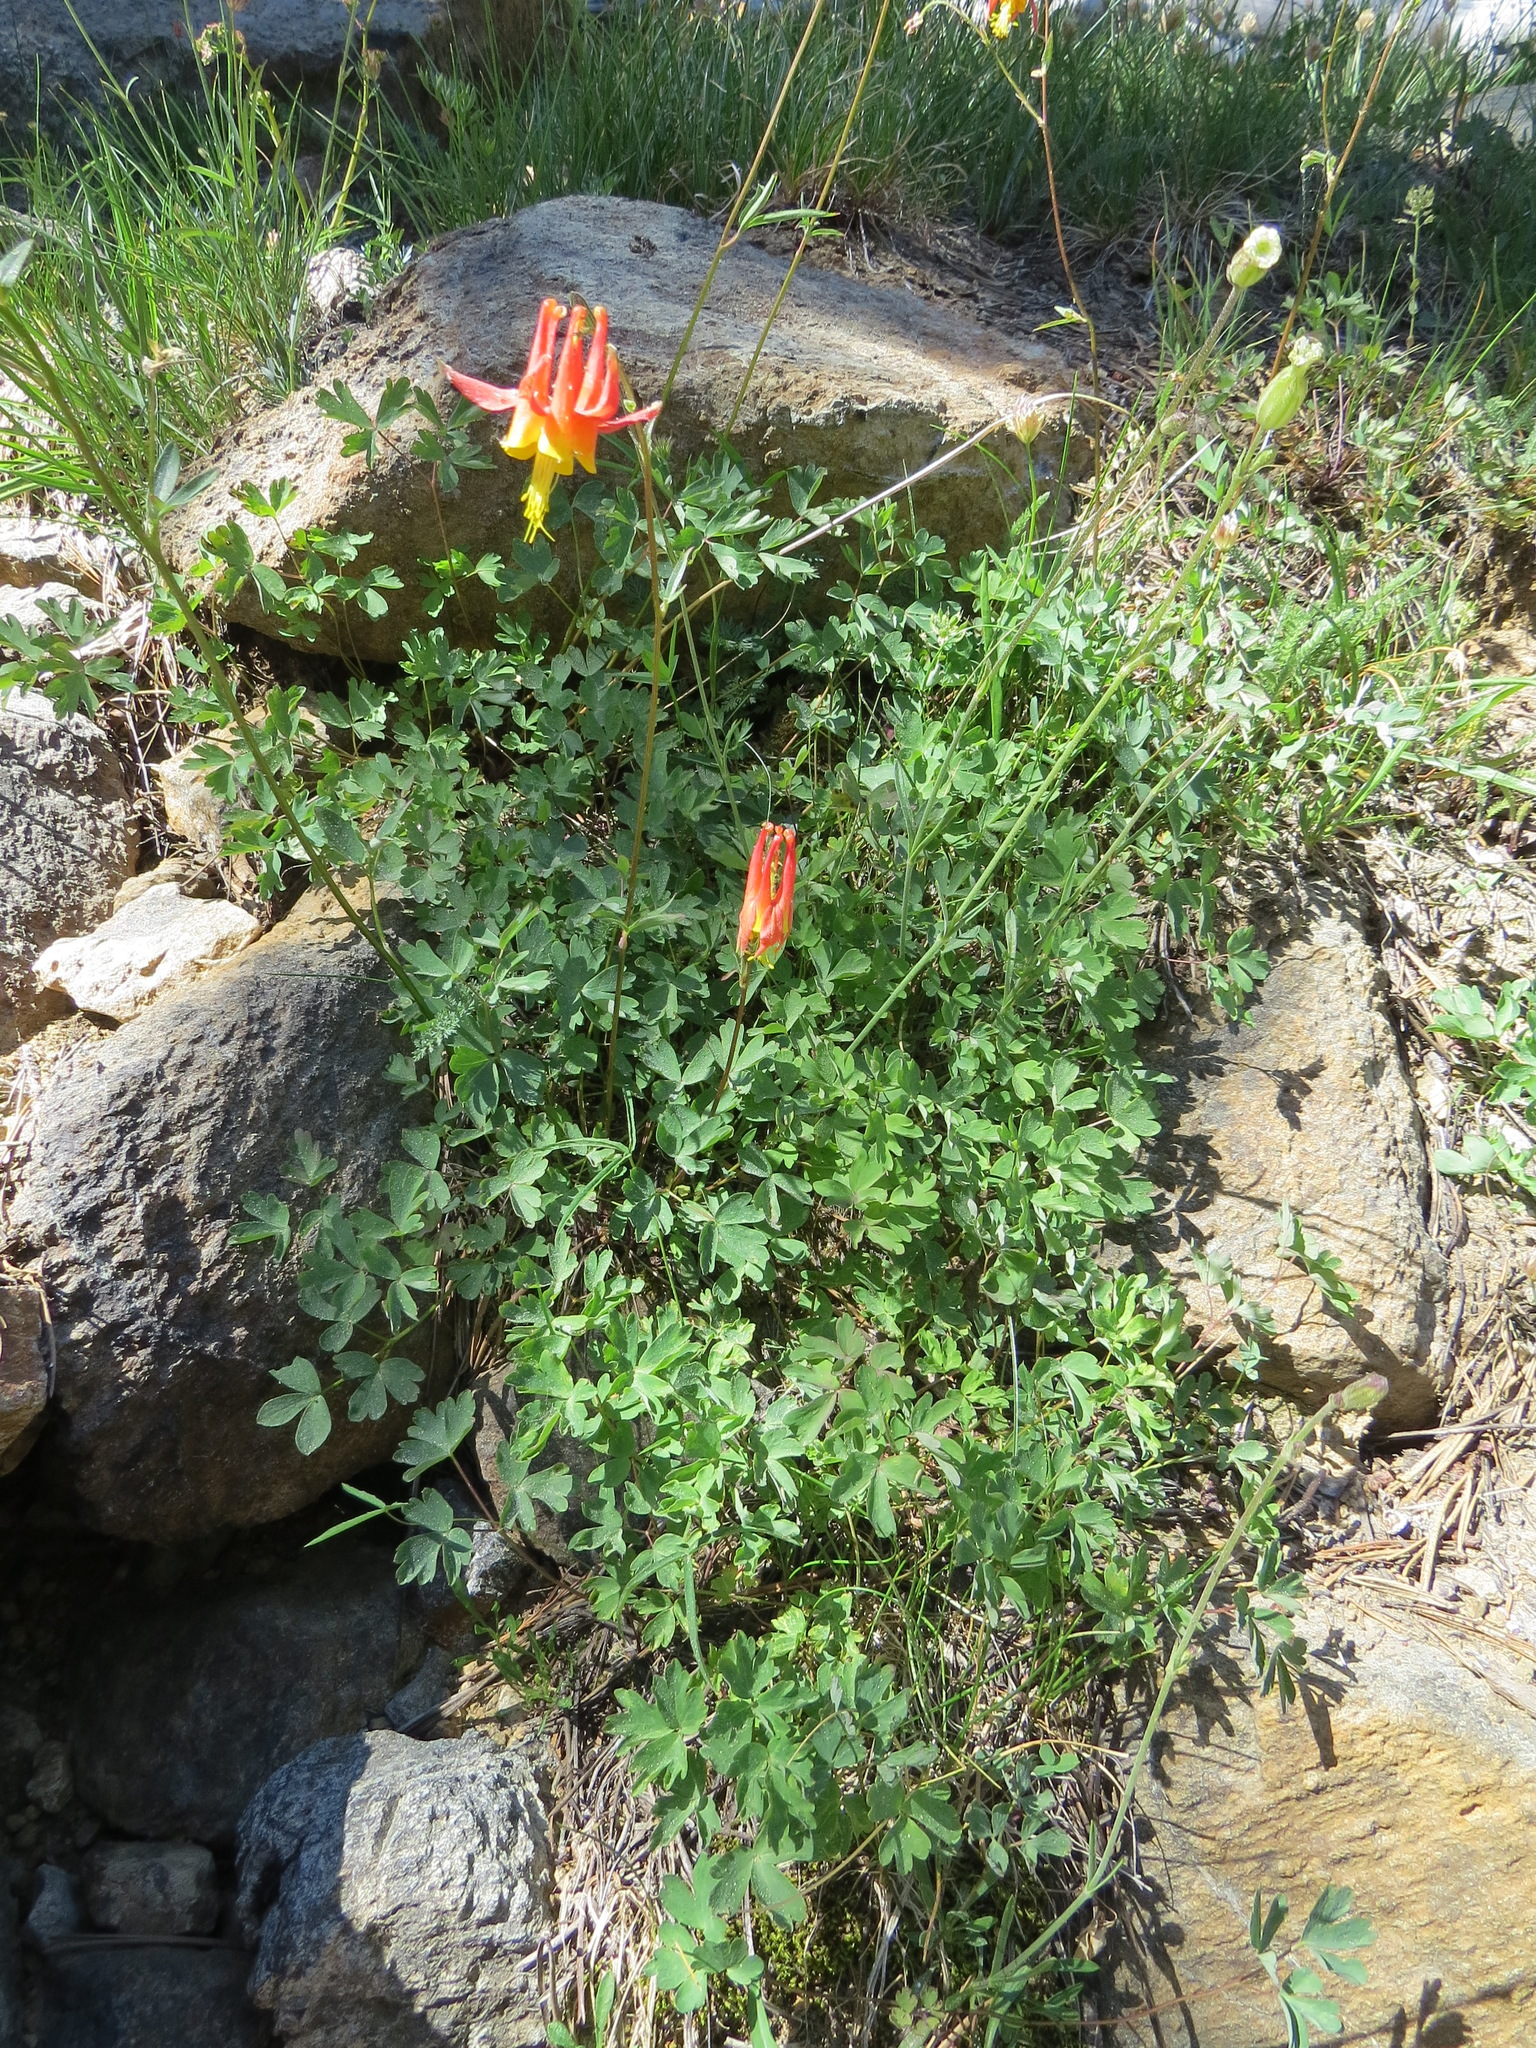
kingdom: Plantae
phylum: Tracheophyta
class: Magnoliopsida
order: Ranunculales
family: Ranunculaceae
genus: Aquilegia
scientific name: Aquilegia formosa
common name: Sitka columbine
